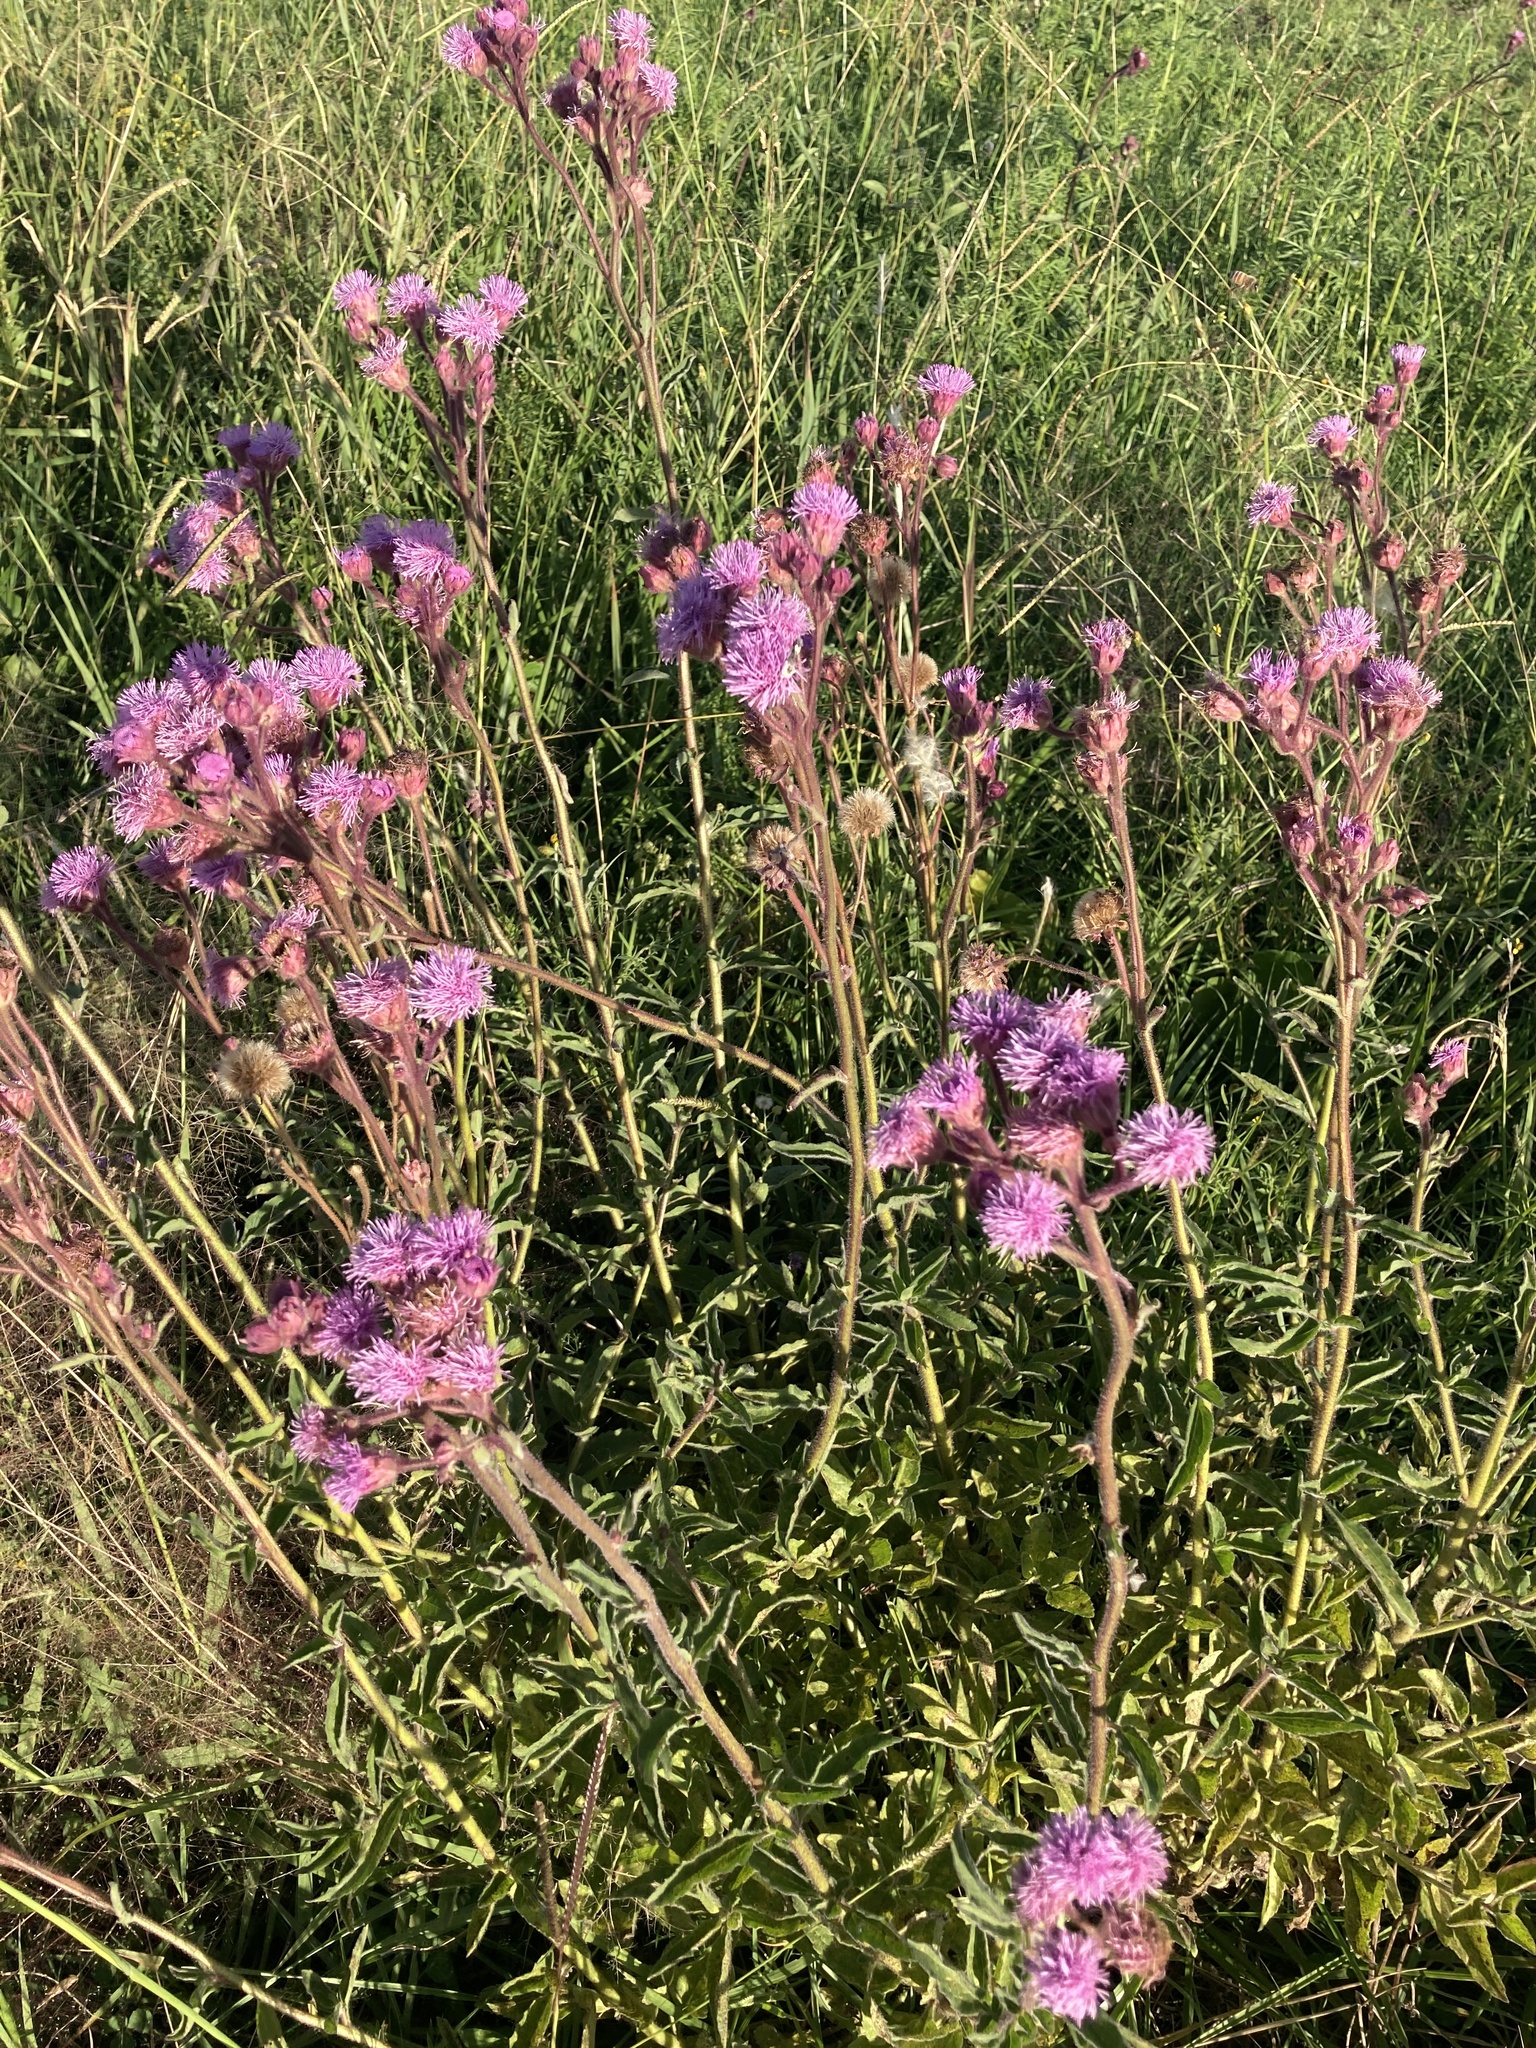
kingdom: Plantae
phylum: Tracheophyta
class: Magnoliopsida
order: Asterales
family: Asteraceae
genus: Campuloclinium
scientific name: Campuloclinium macrocephalum
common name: Pompomweed
